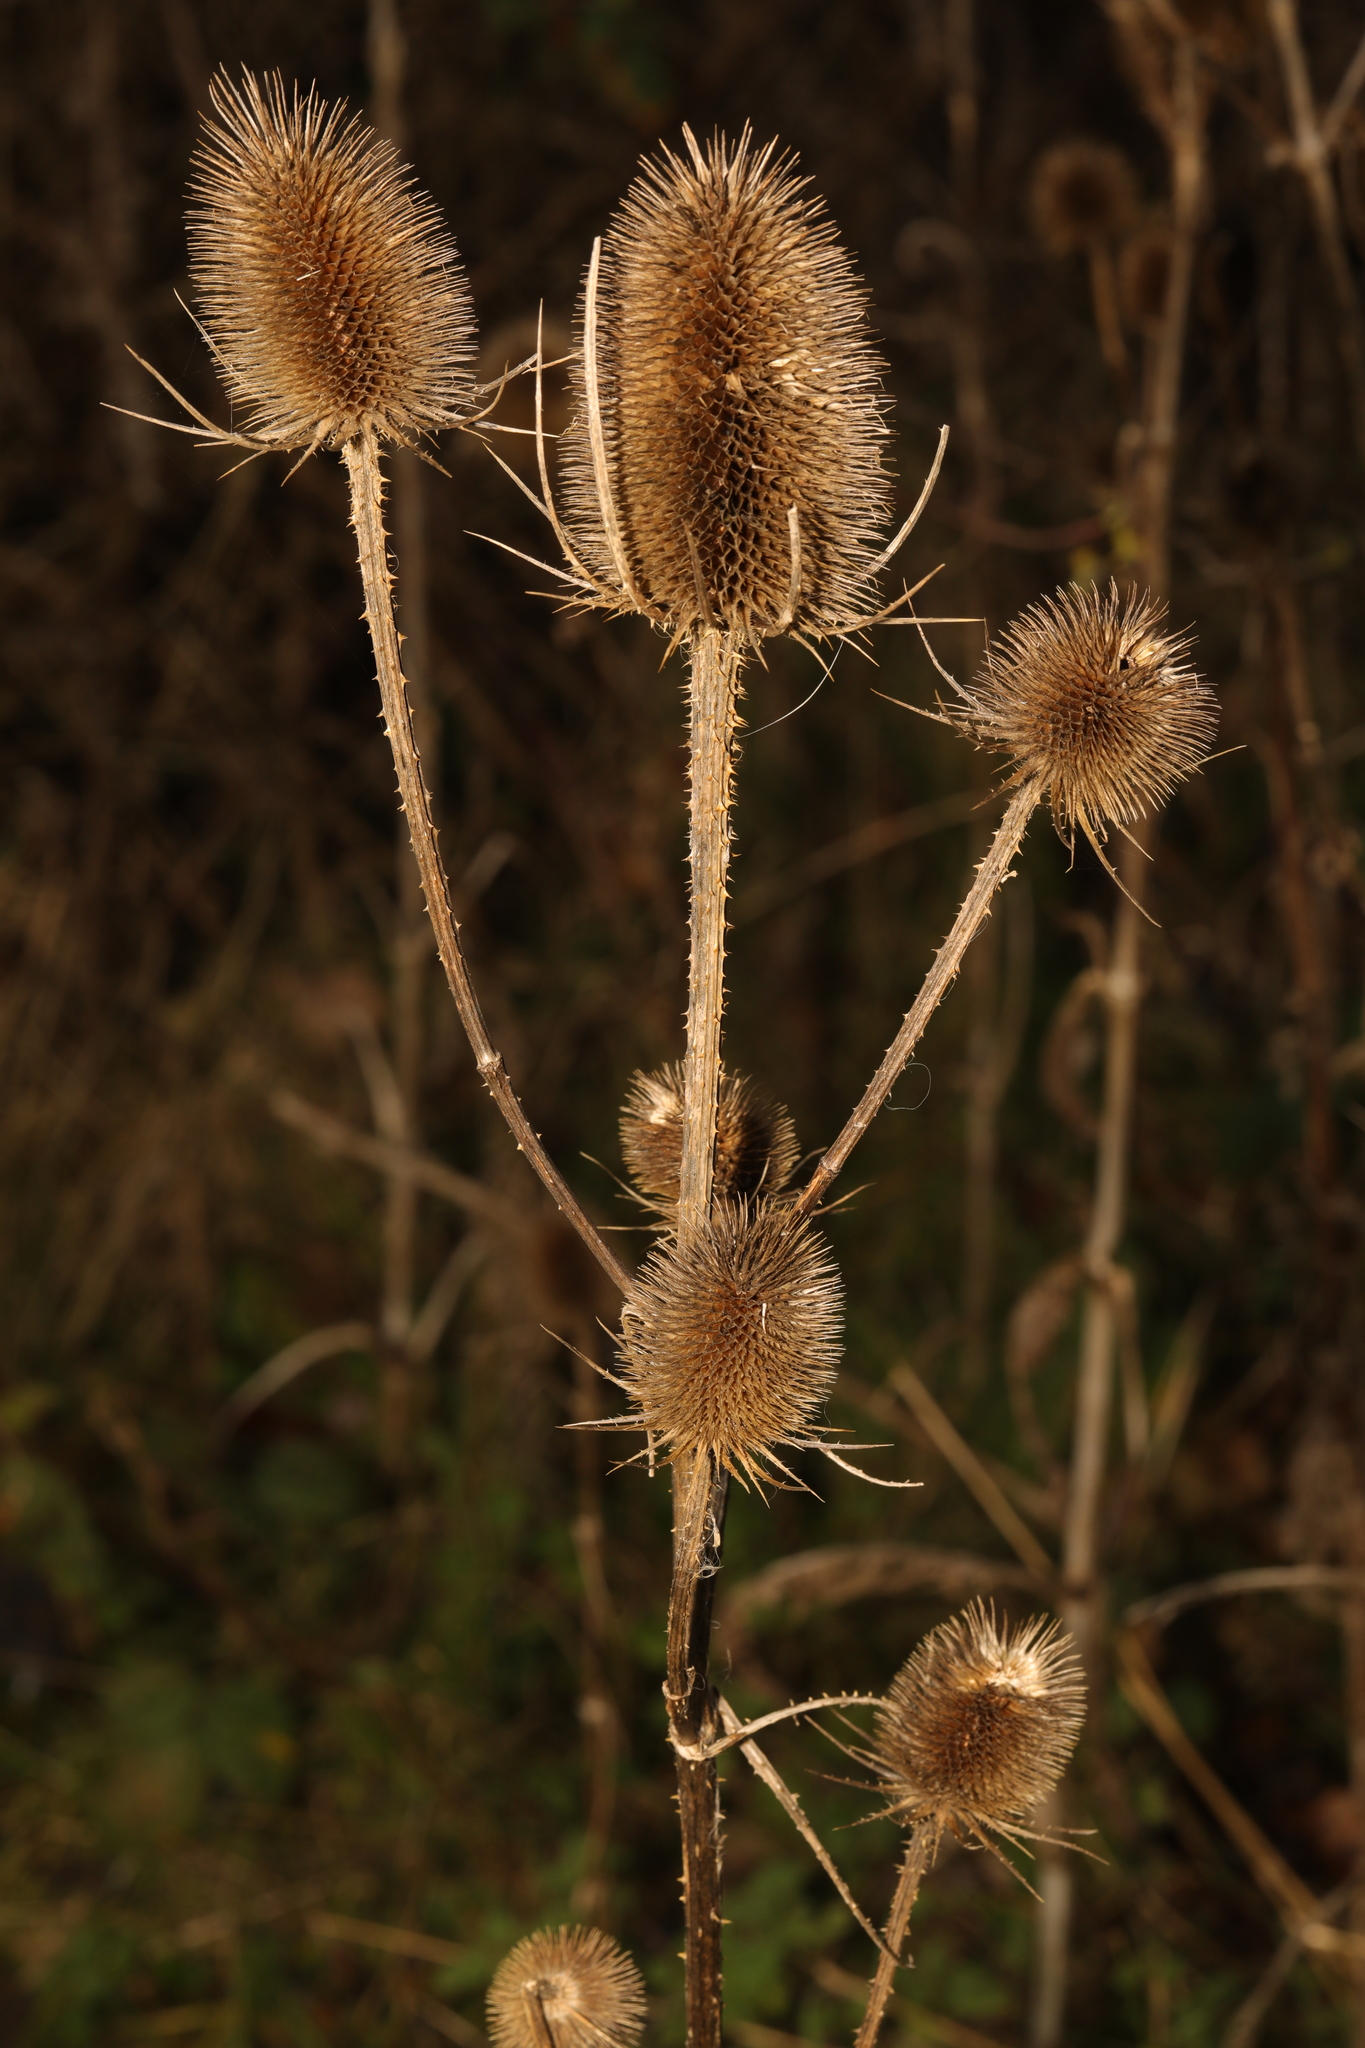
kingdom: Plantae
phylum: Tracheophyta
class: Magnoliopsida
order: Dipsacales
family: Caprifoliaceae
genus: Dipsacus
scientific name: Dipsacus fullonum
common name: Teasel
